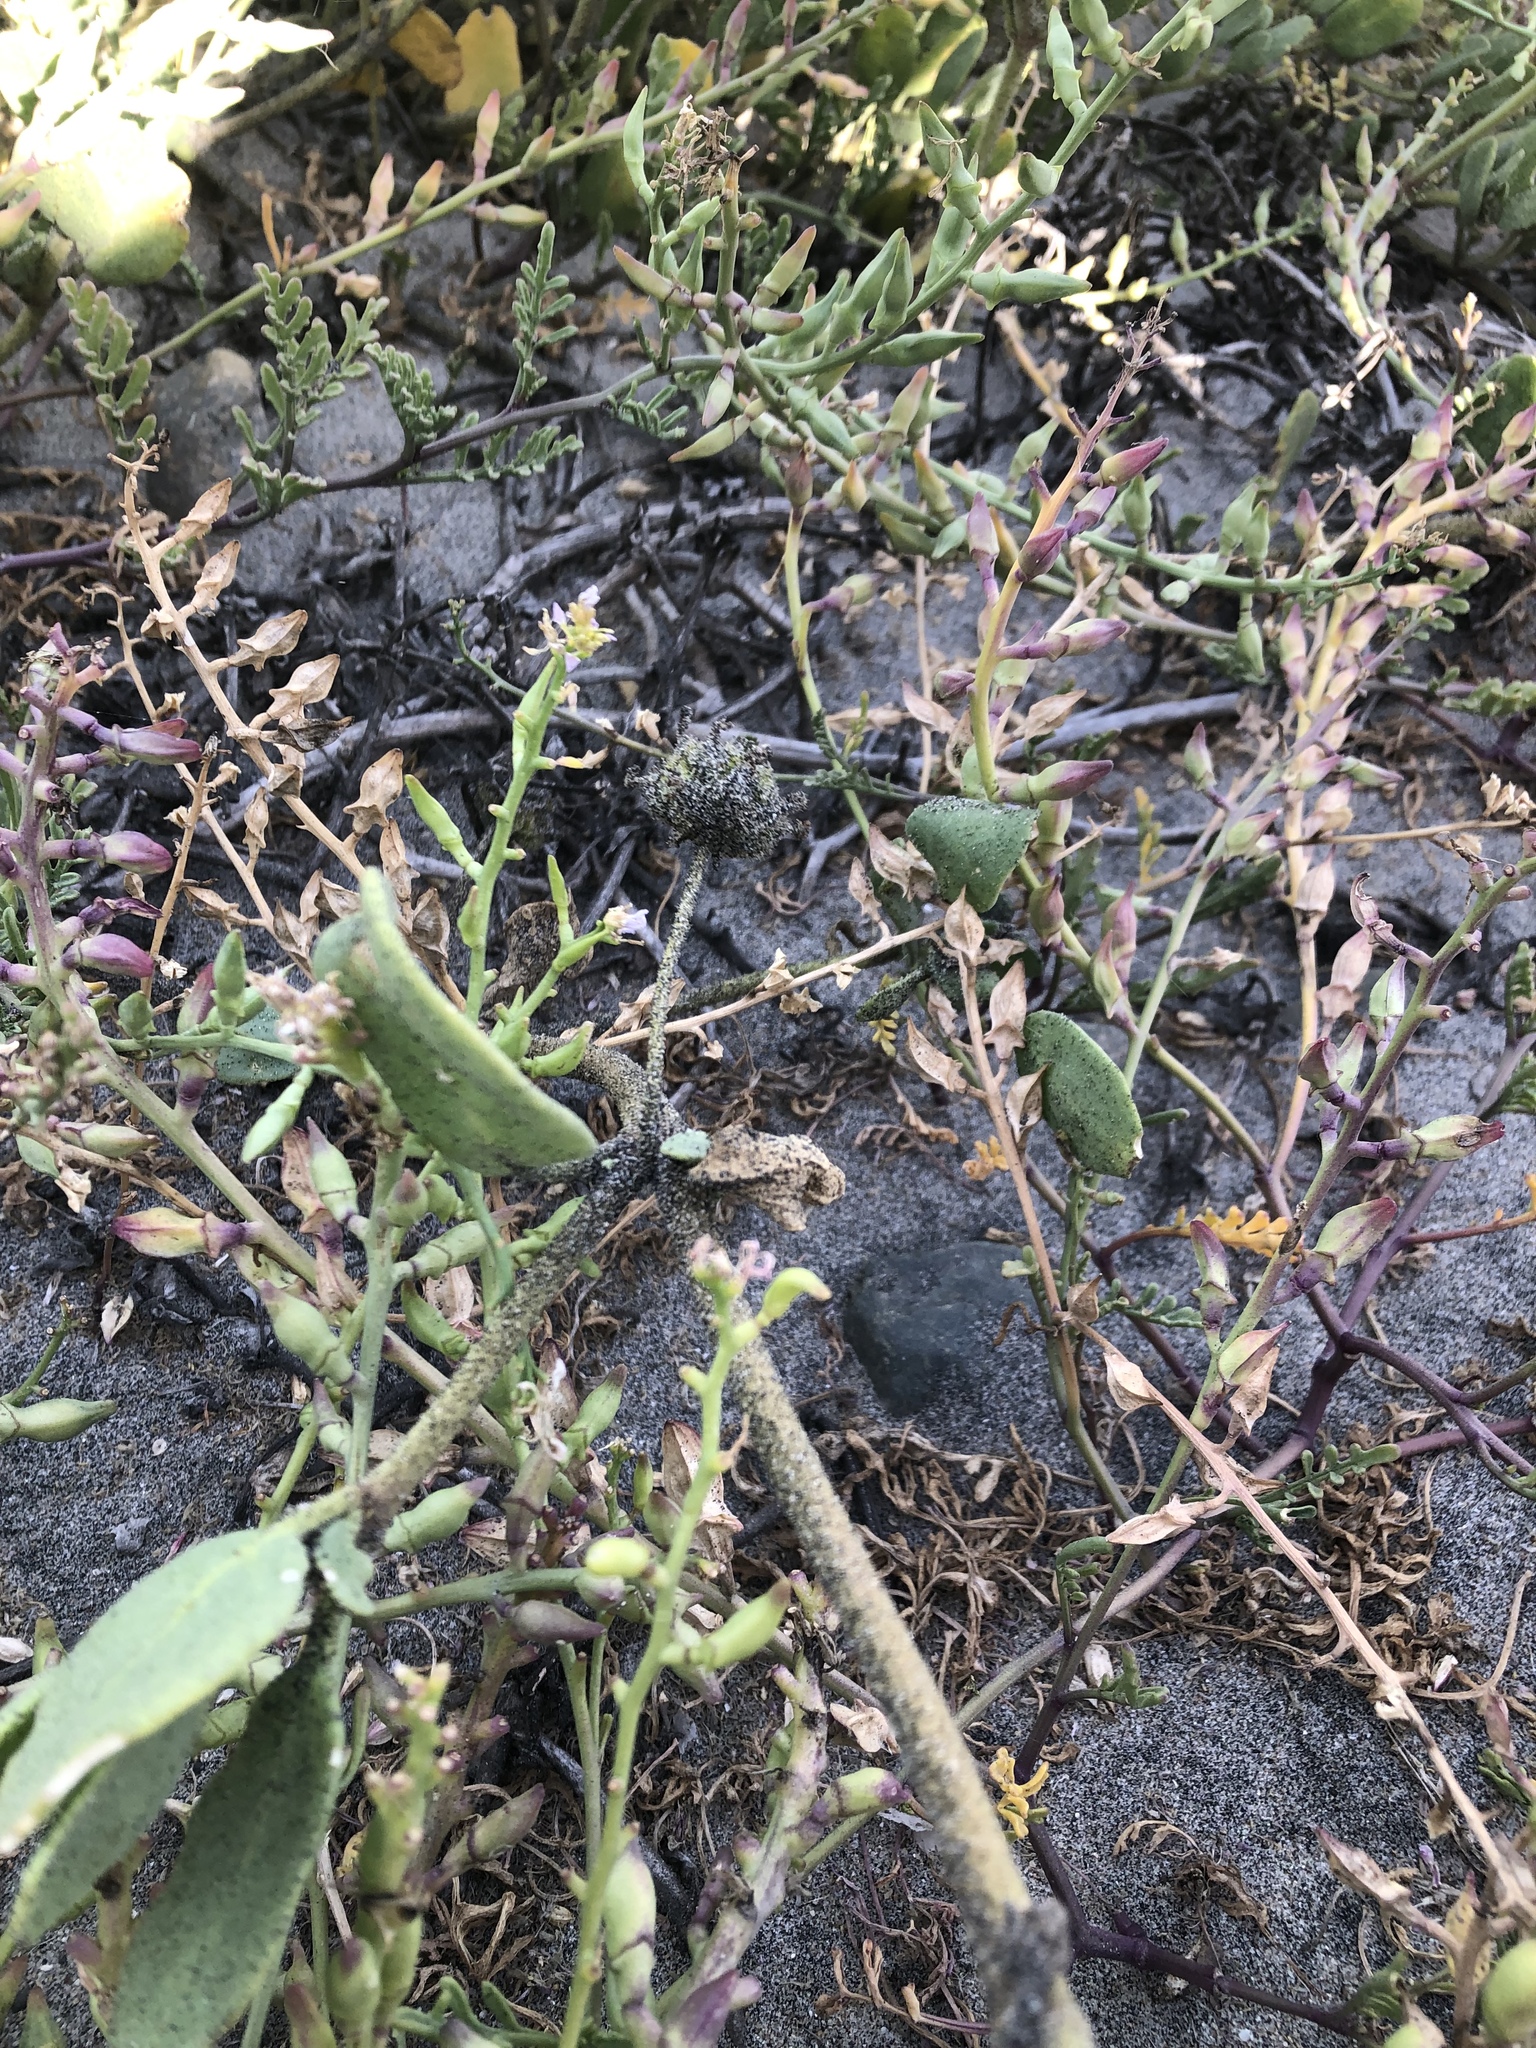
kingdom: Plantae
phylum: Tracheophyta
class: Magnoliopsida
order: Caryophyllales
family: Nyctaginaceae
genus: Abronia
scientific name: Abronia maritima
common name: Red sand-verbena
